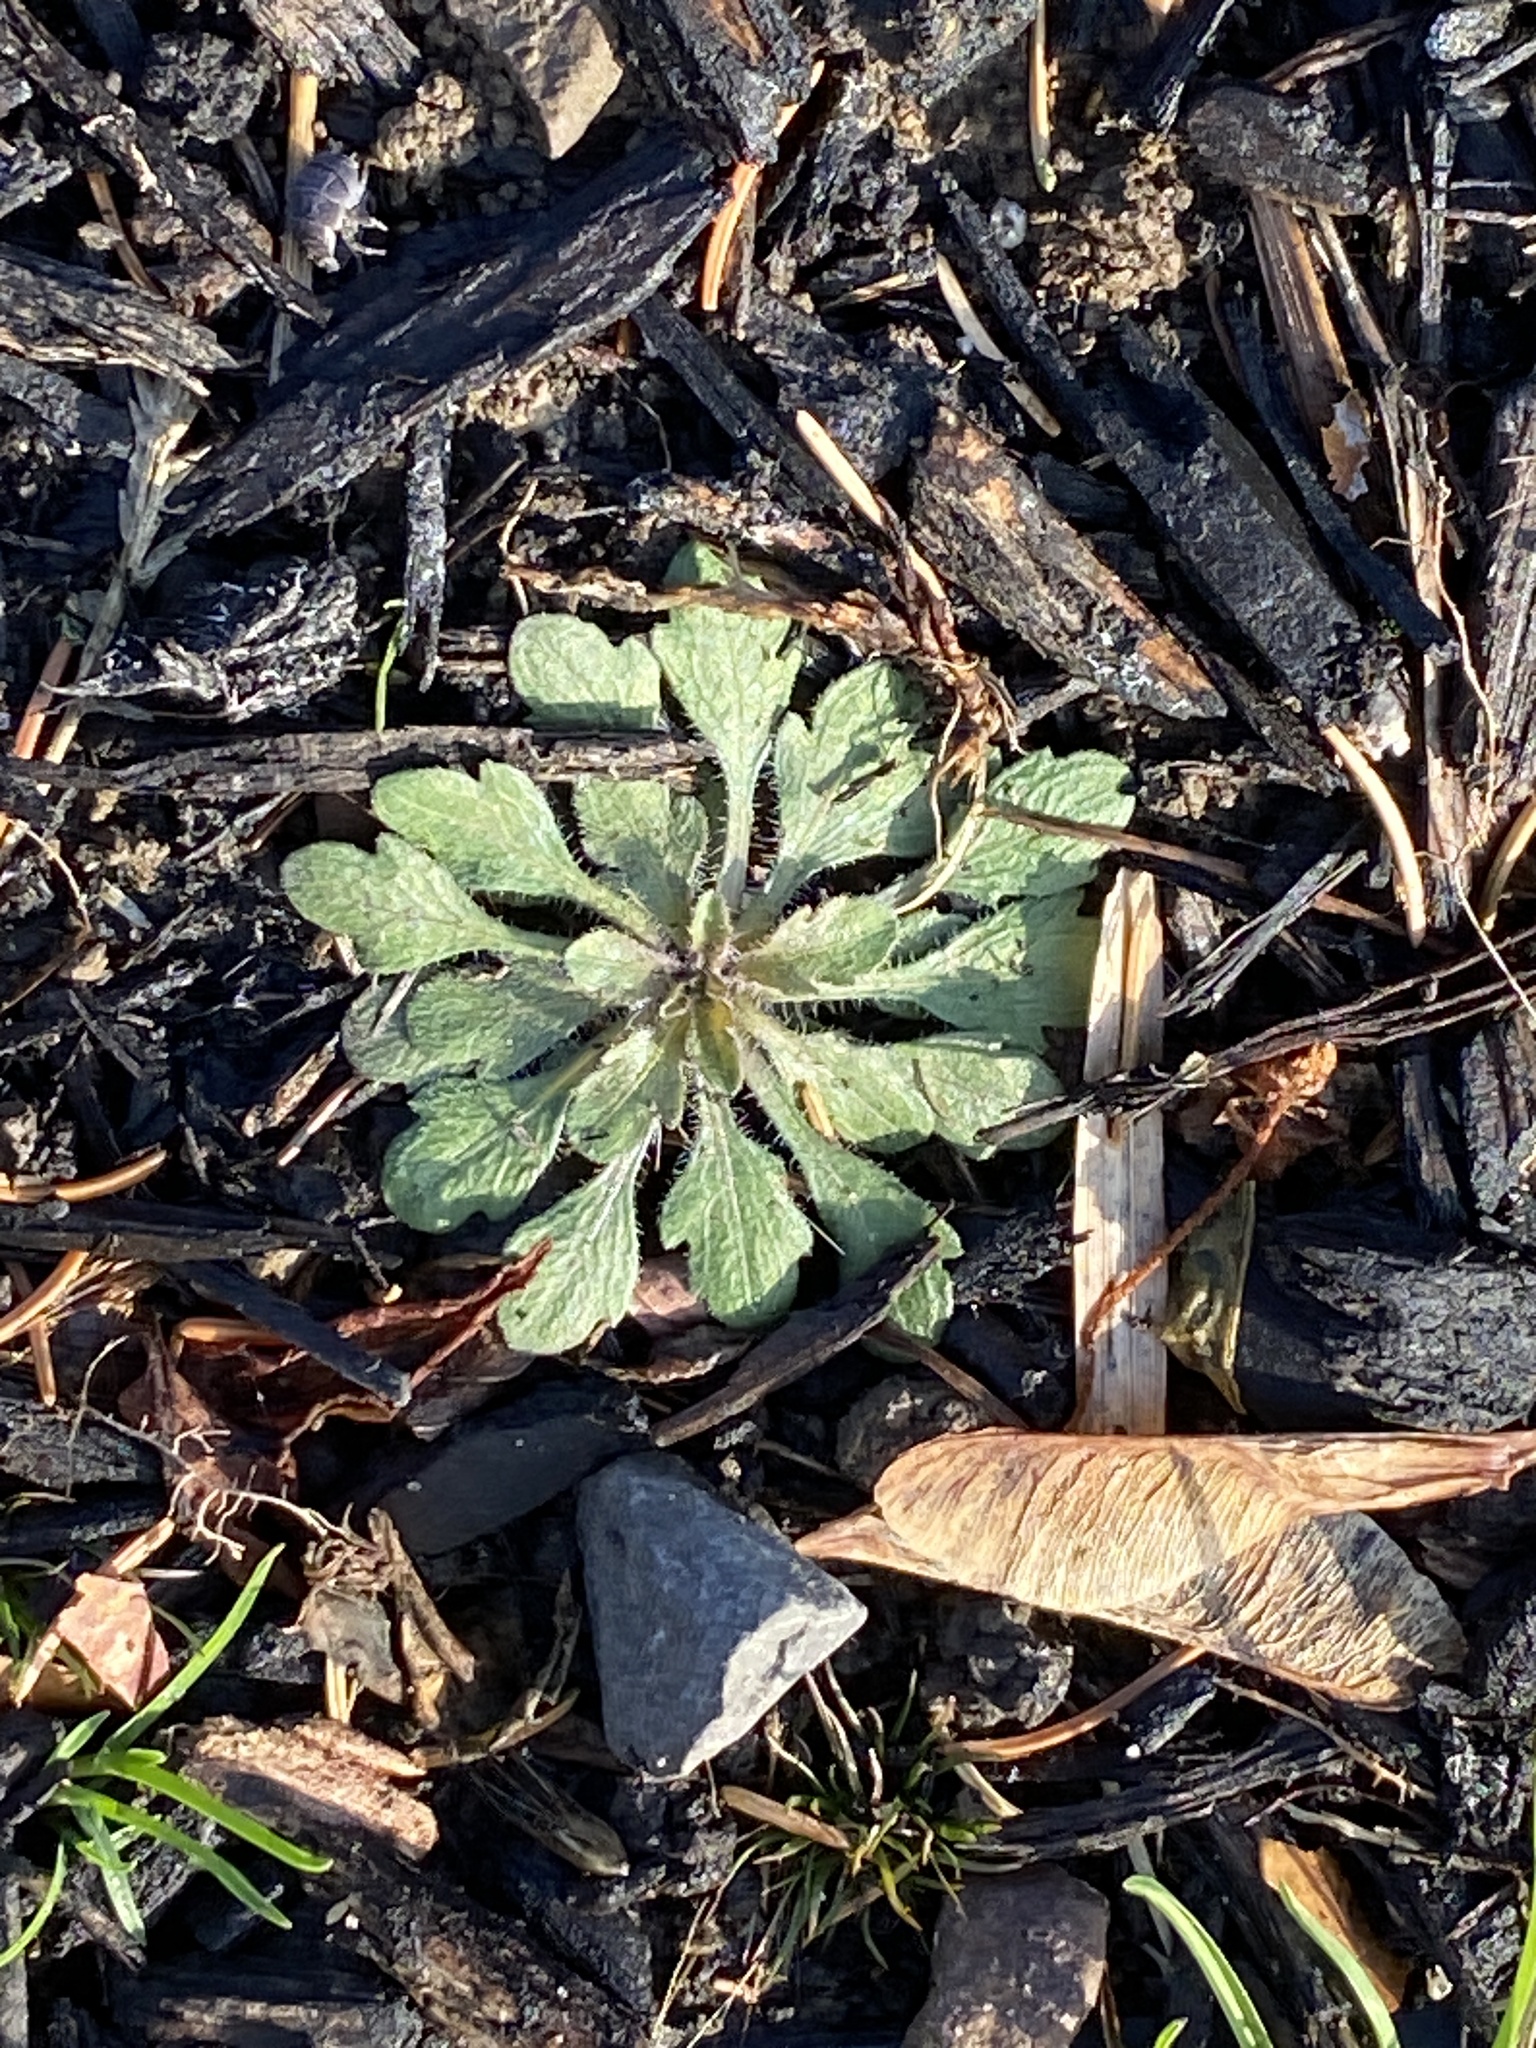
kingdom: Plantae
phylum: Tracheophyta
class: Magnoliopsida
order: Asterales
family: Asteraceae
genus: Erigeron
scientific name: Erigeron canadensis
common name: Canadian fleabane
